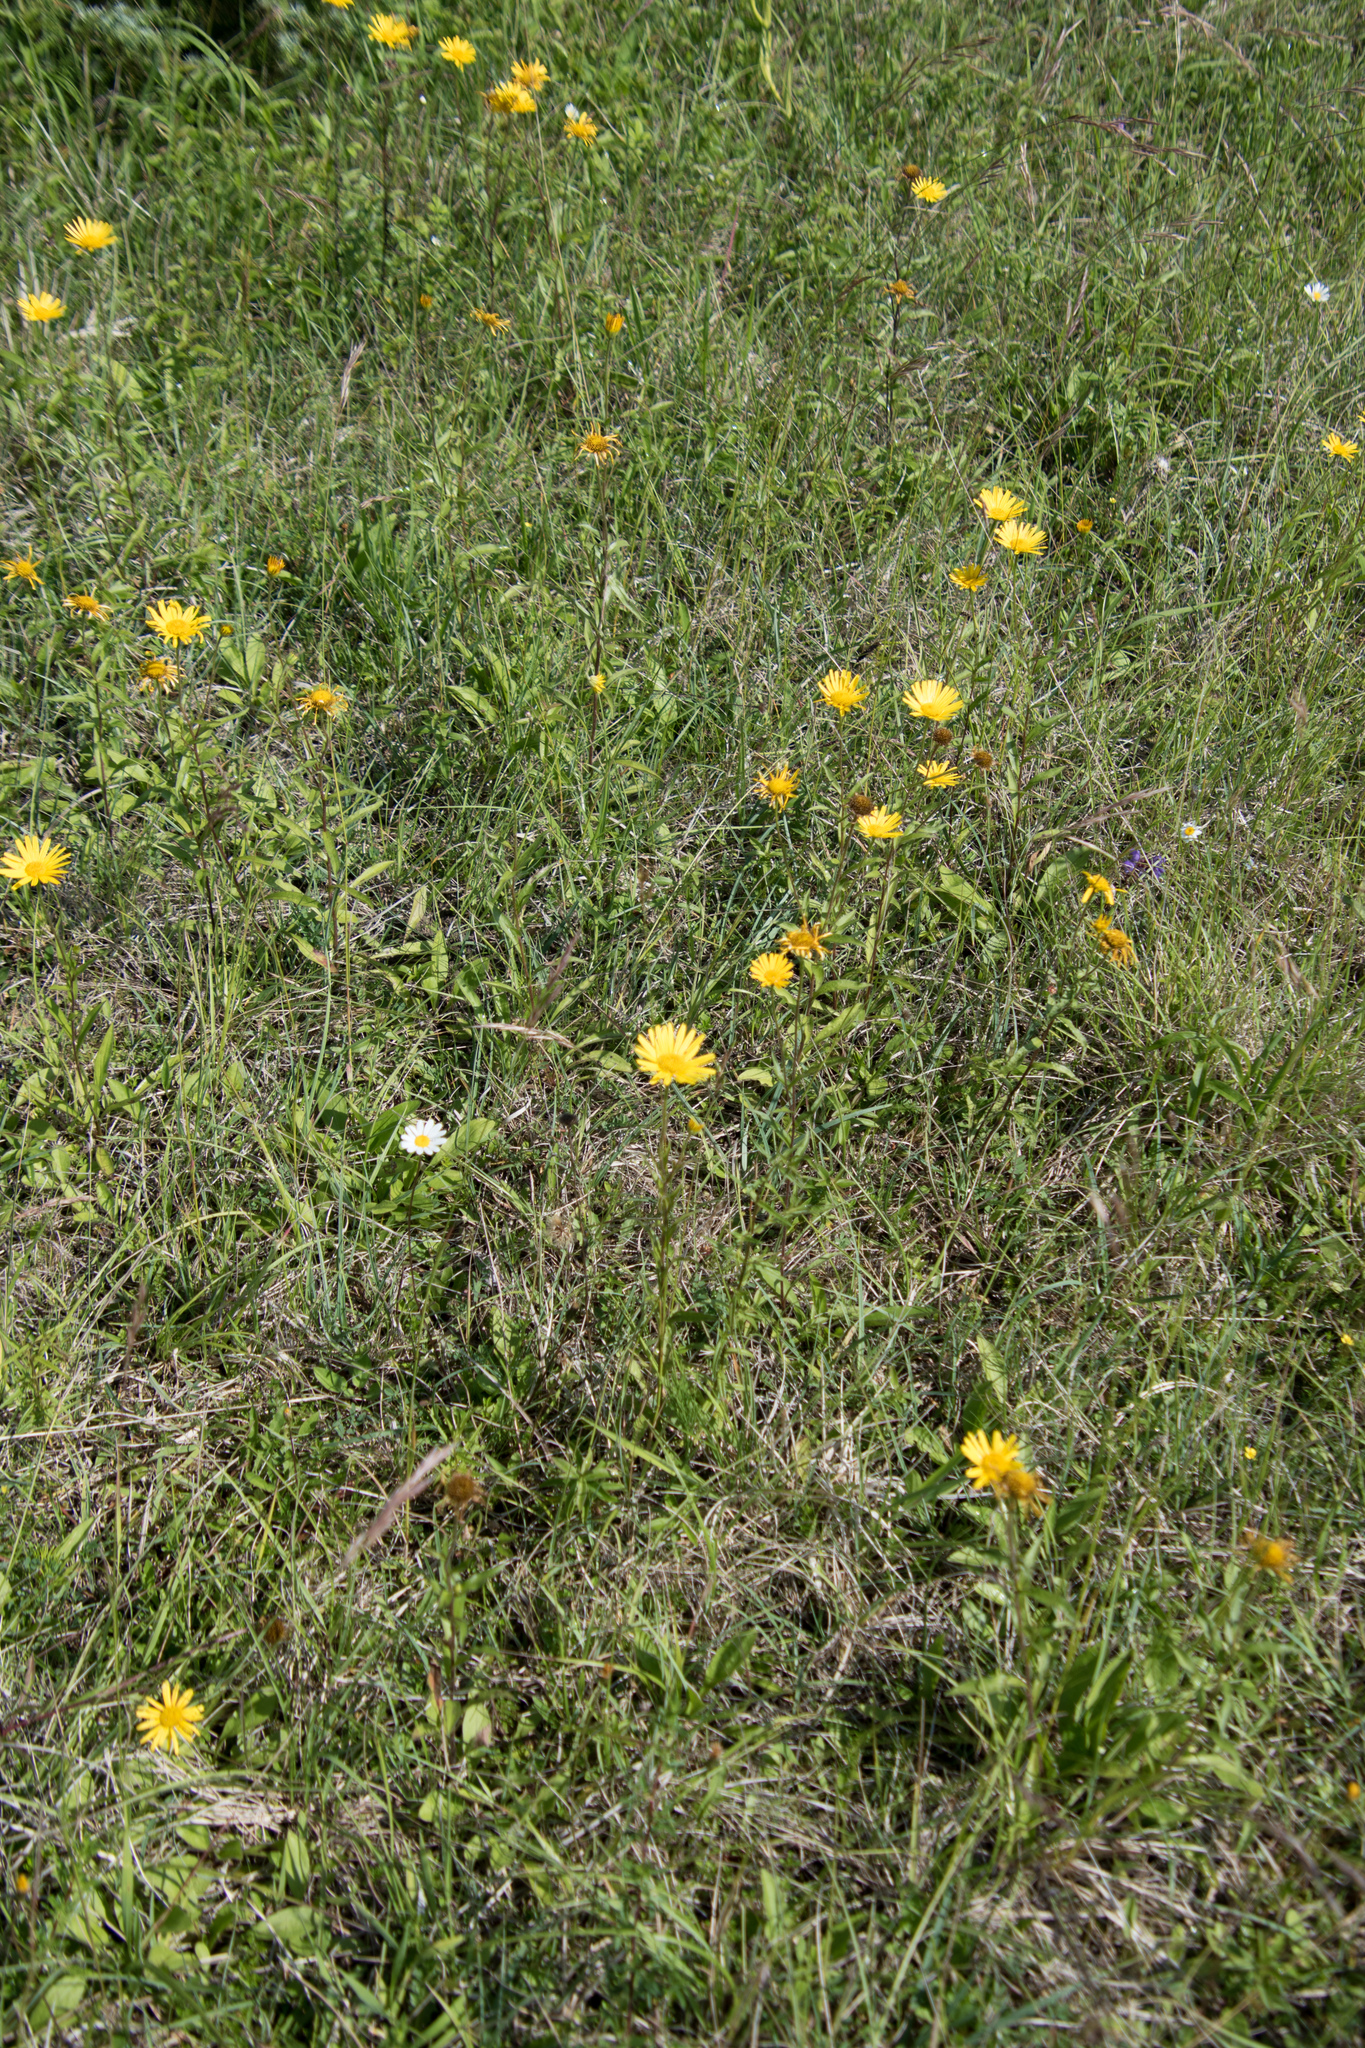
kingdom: Plantae
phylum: Tracheophyta
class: Magnoliopsida
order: Asterales
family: Asteraceae
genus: Buphthalmum
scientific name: Buphthalmum salicifolium
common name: Willow-leaved yellow-oxeye
